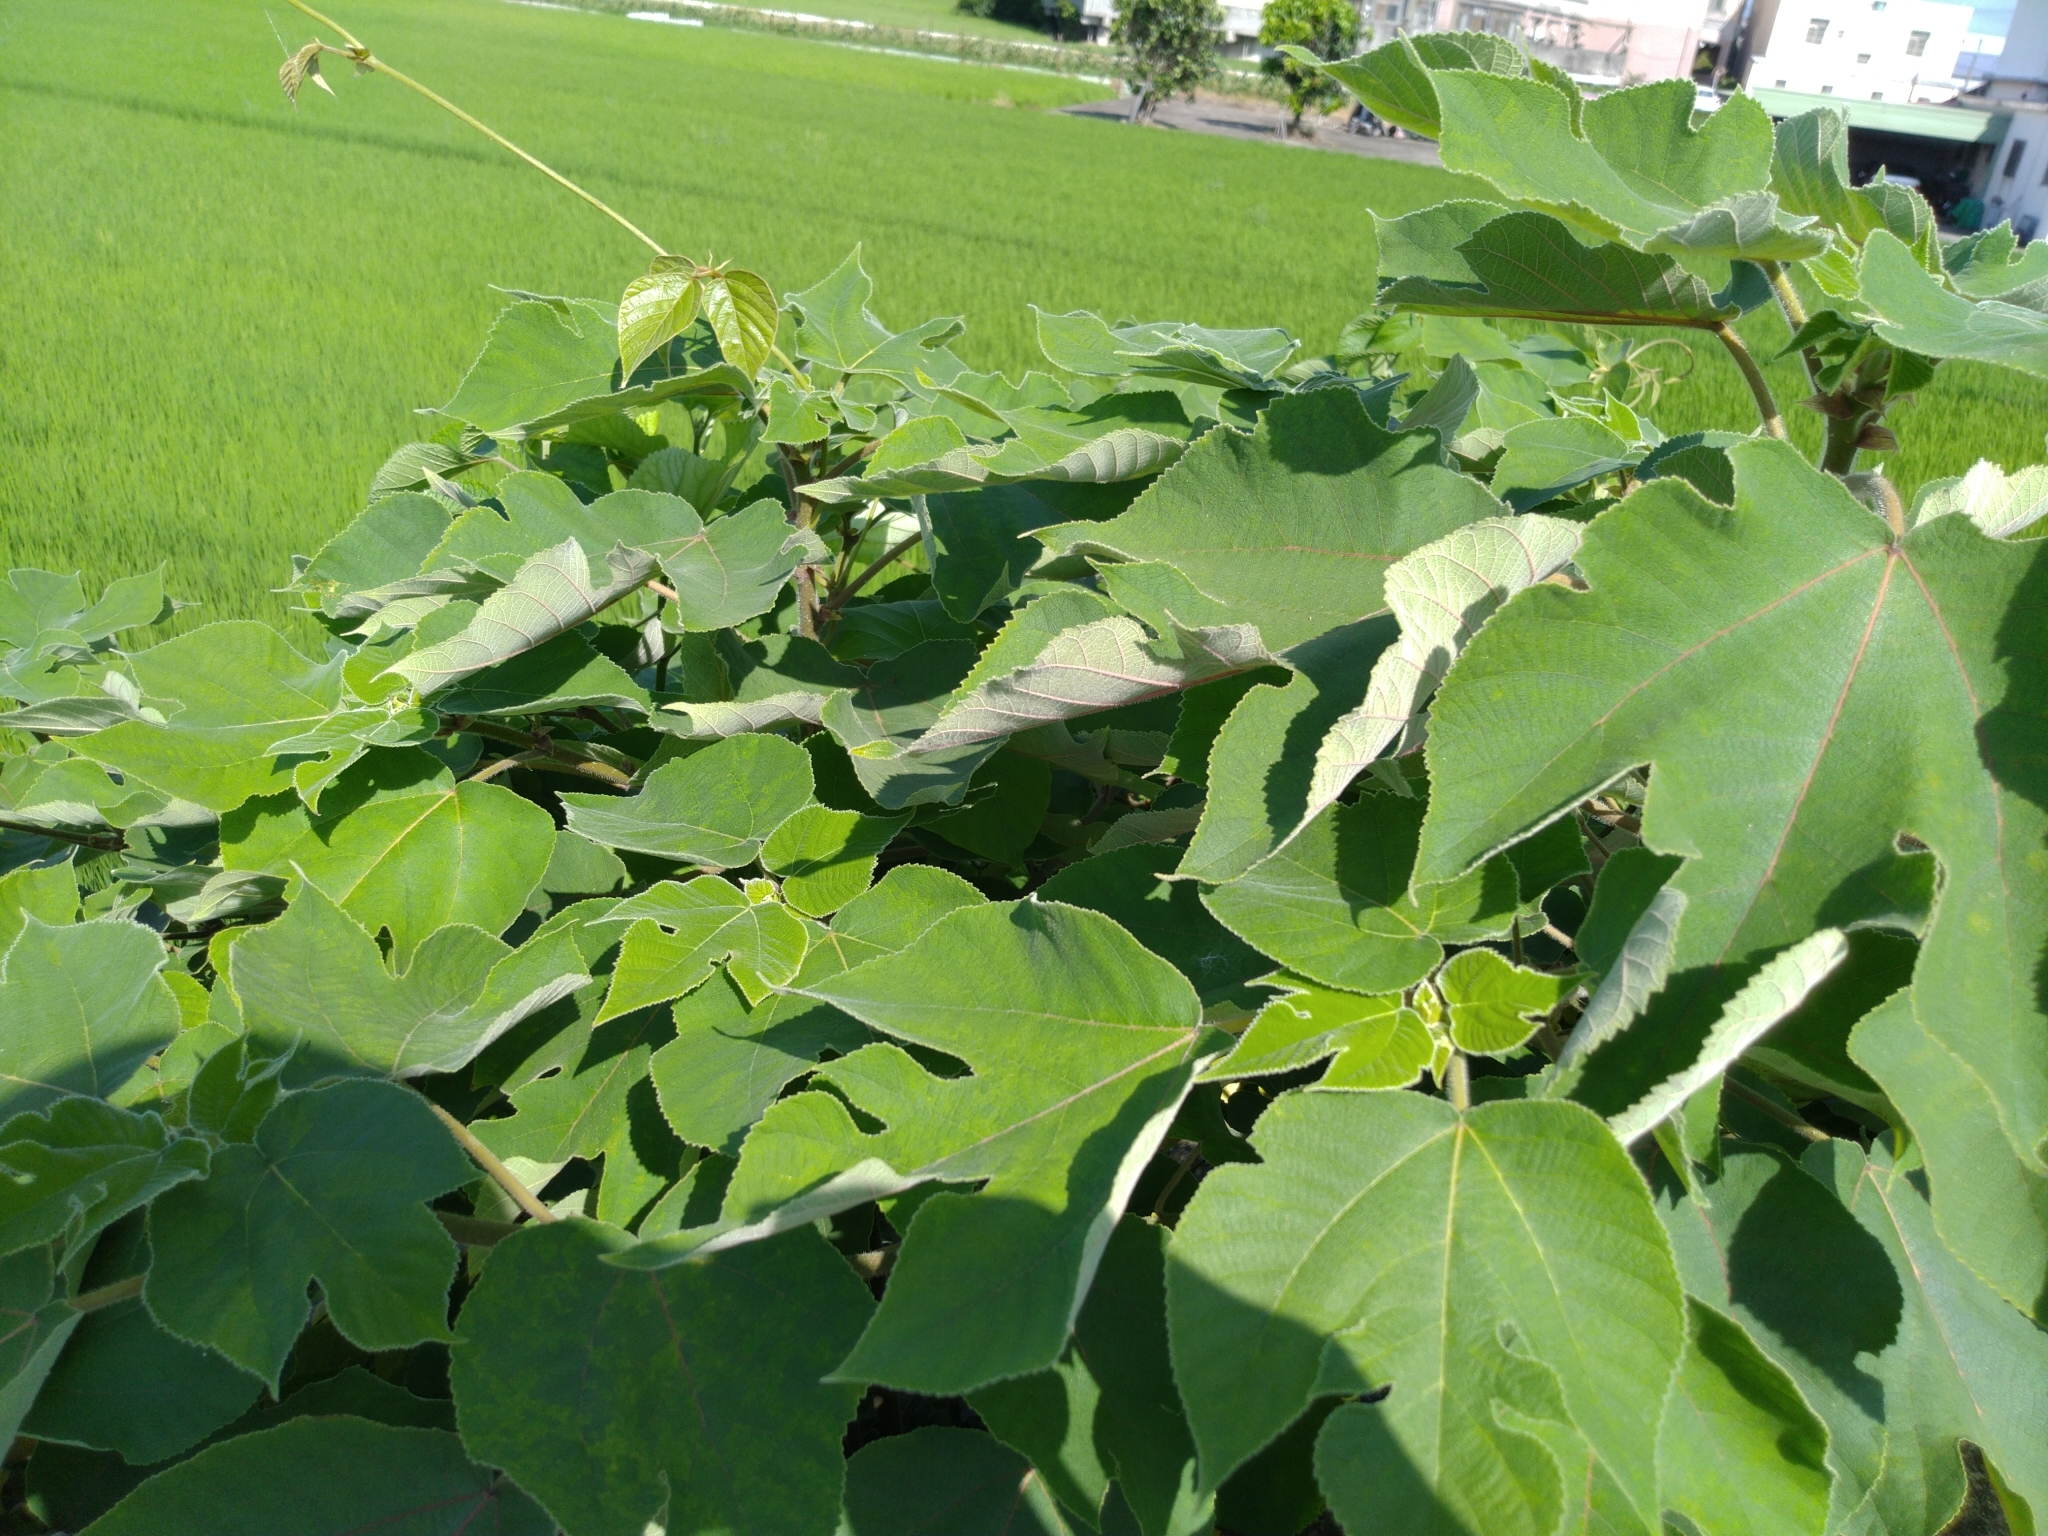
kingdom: Plantae
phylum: Tracheophyta
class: Magnoliopsida
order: Rosales
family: Moraceae
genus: Broussonetia
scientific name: Broussonetia papyrifera
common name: Paper mulberry
